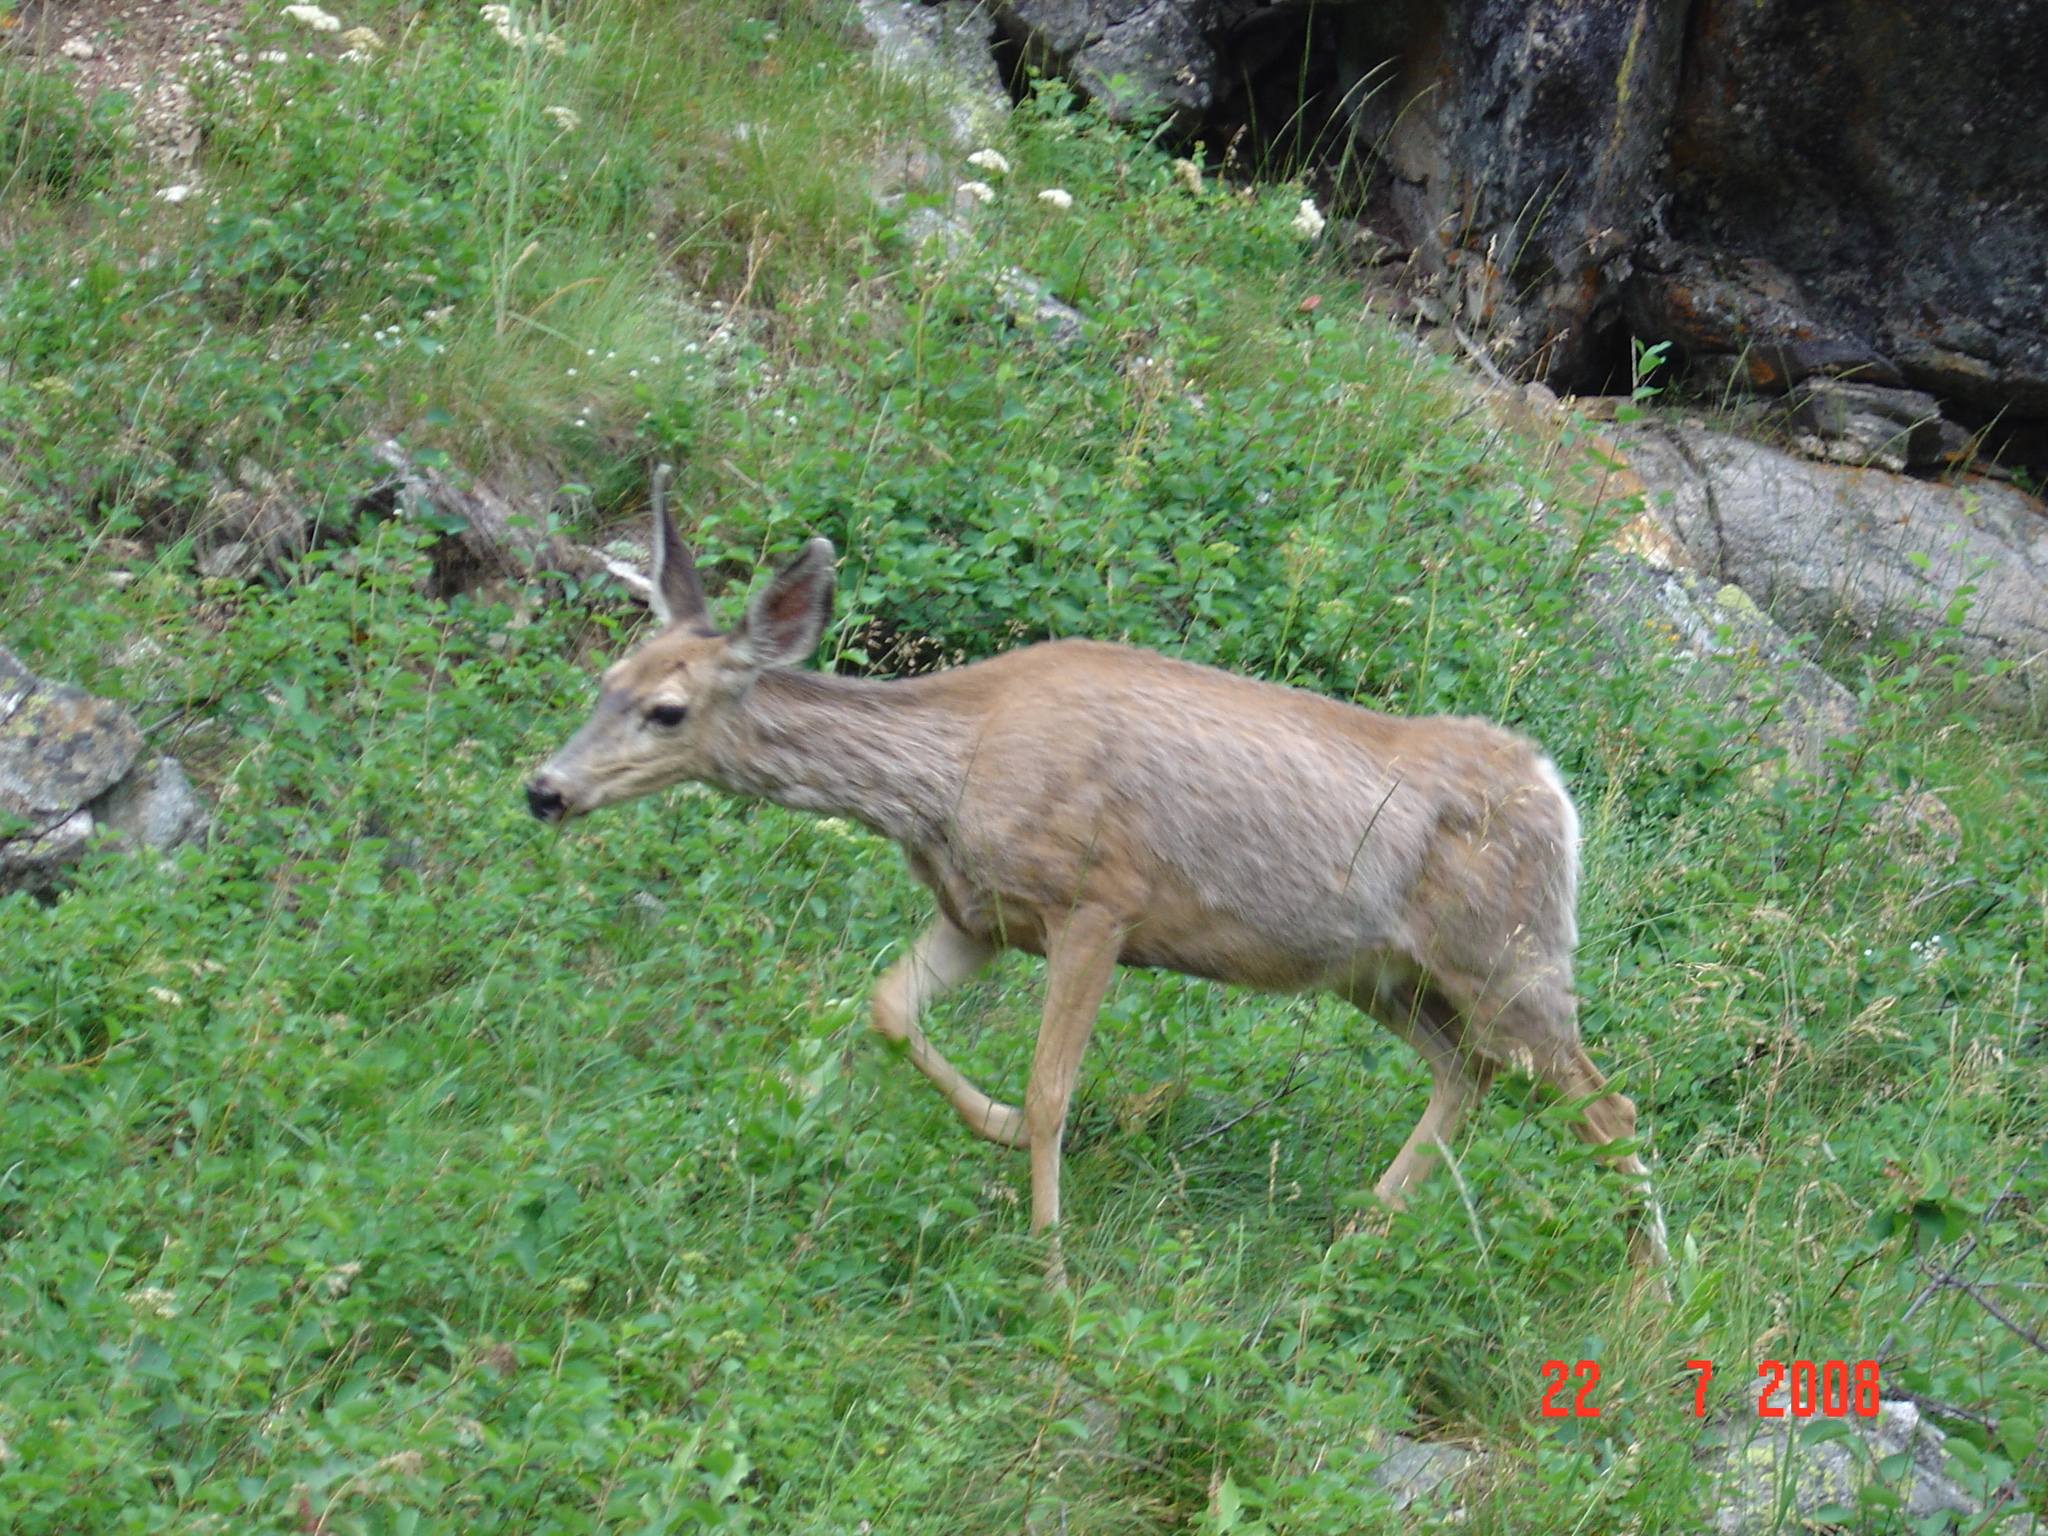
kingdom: Animalia
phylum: Chordata
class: Mammalia
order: Artiodactyla
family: Cervidae
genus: Odocoileus
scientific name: Odocoileus hemionus
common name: Mule deer
